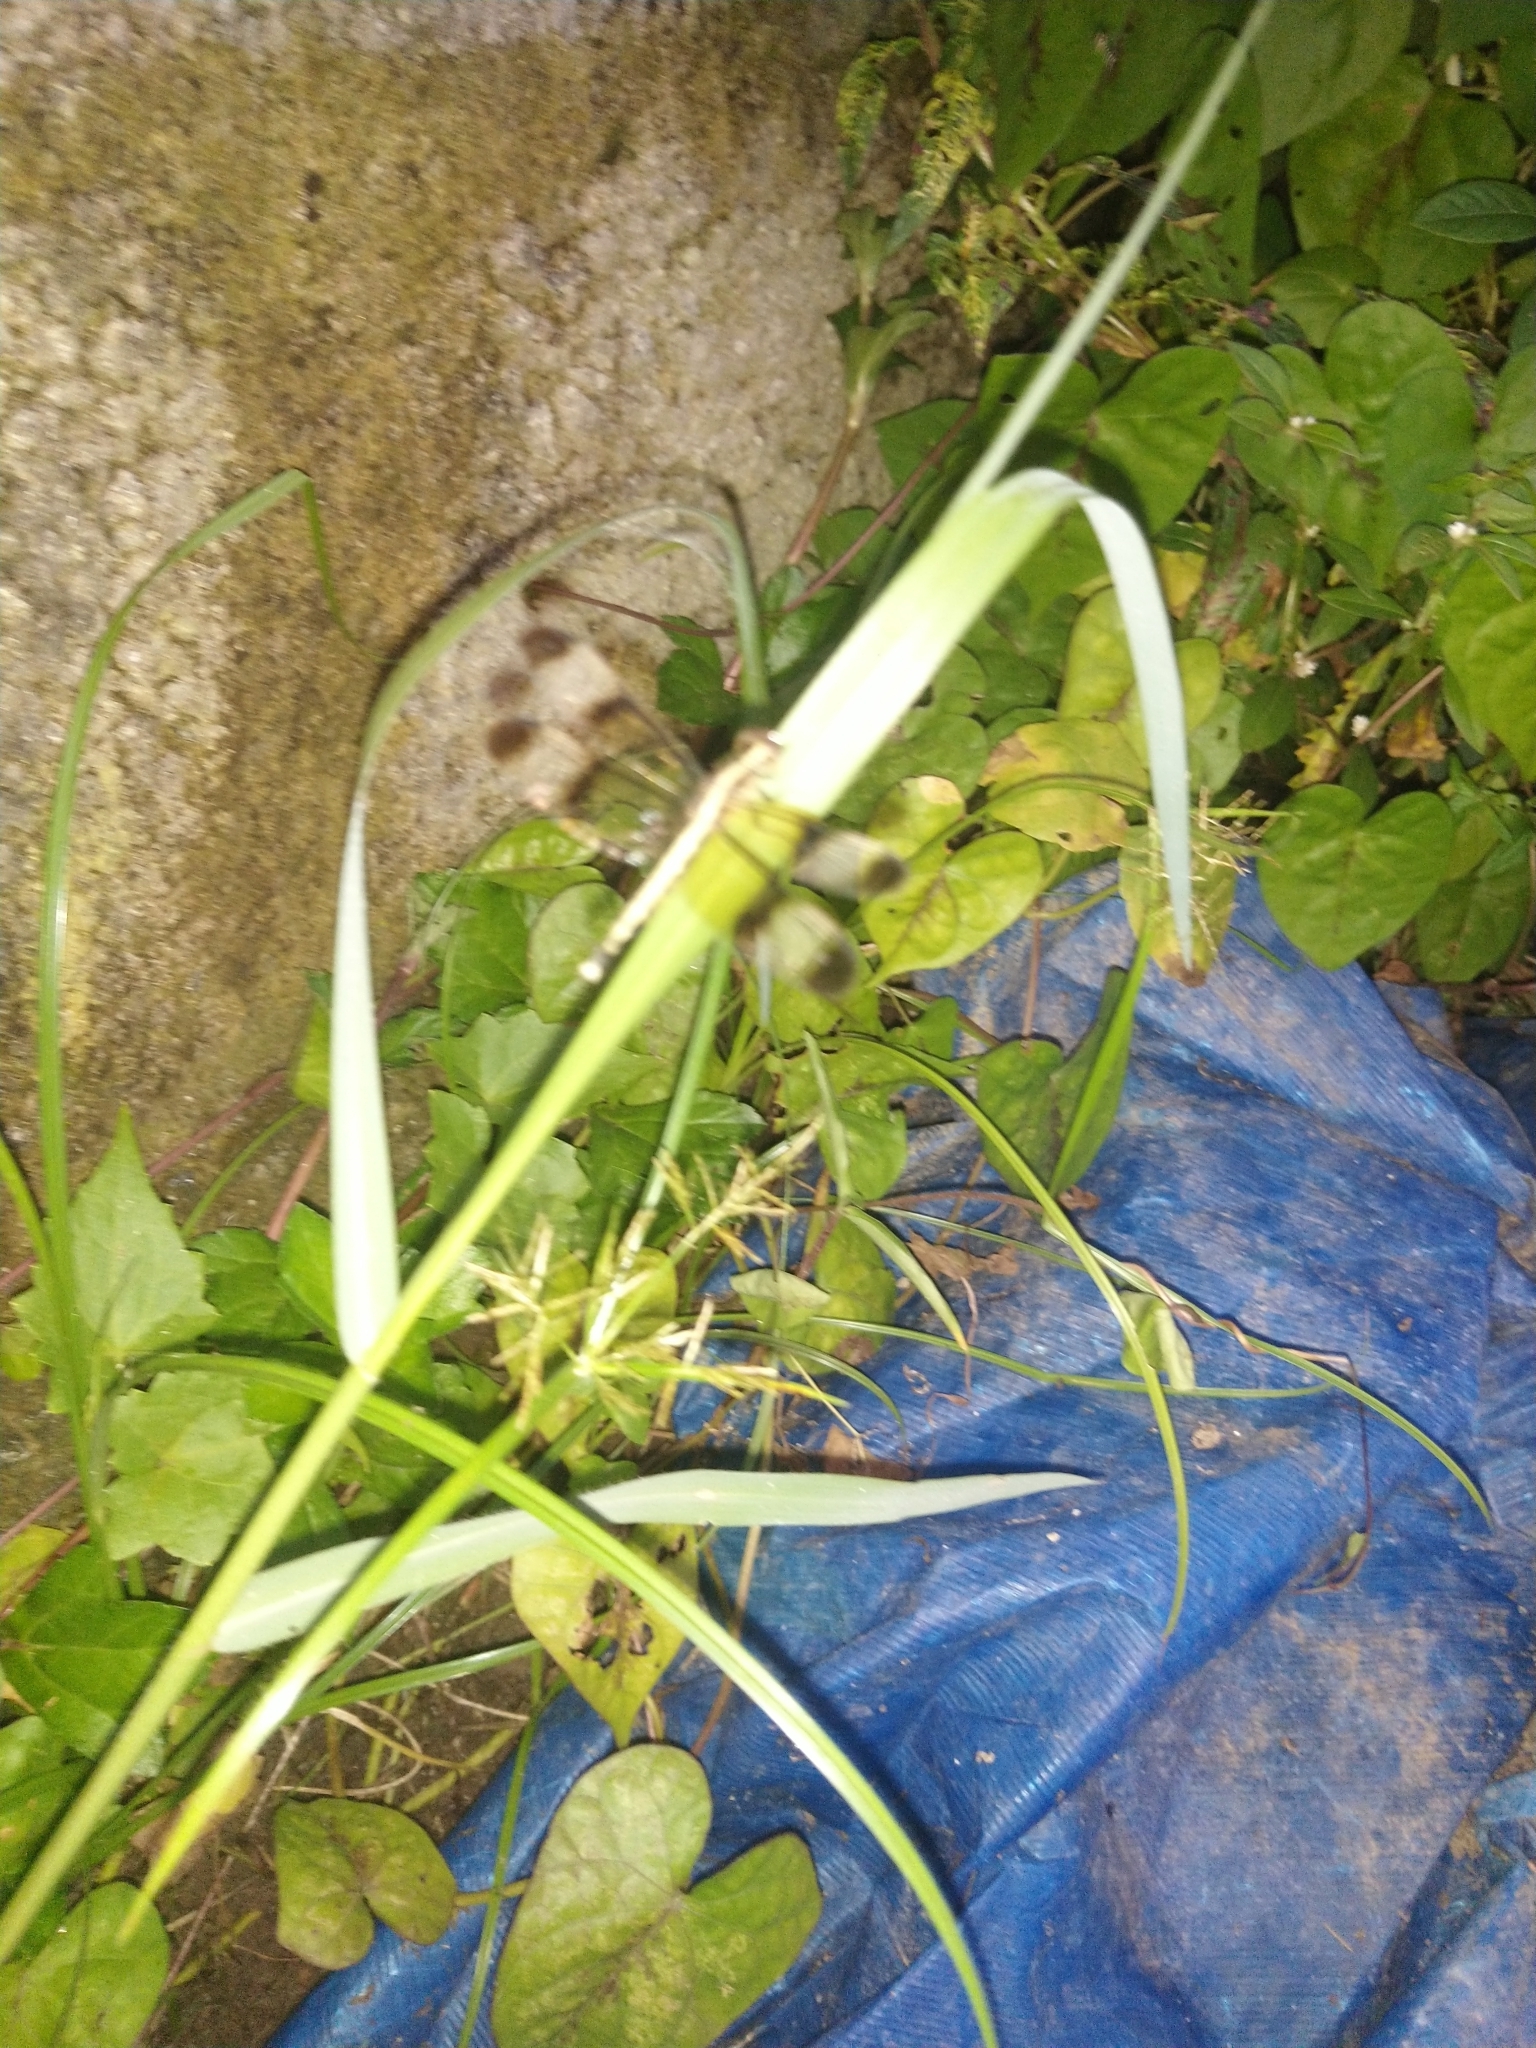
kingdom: Animalia
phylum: Arthropoda
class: Insecta
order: Odonata
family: Libellulidae
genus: Neurothemis
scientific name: Neurothemis tullia
